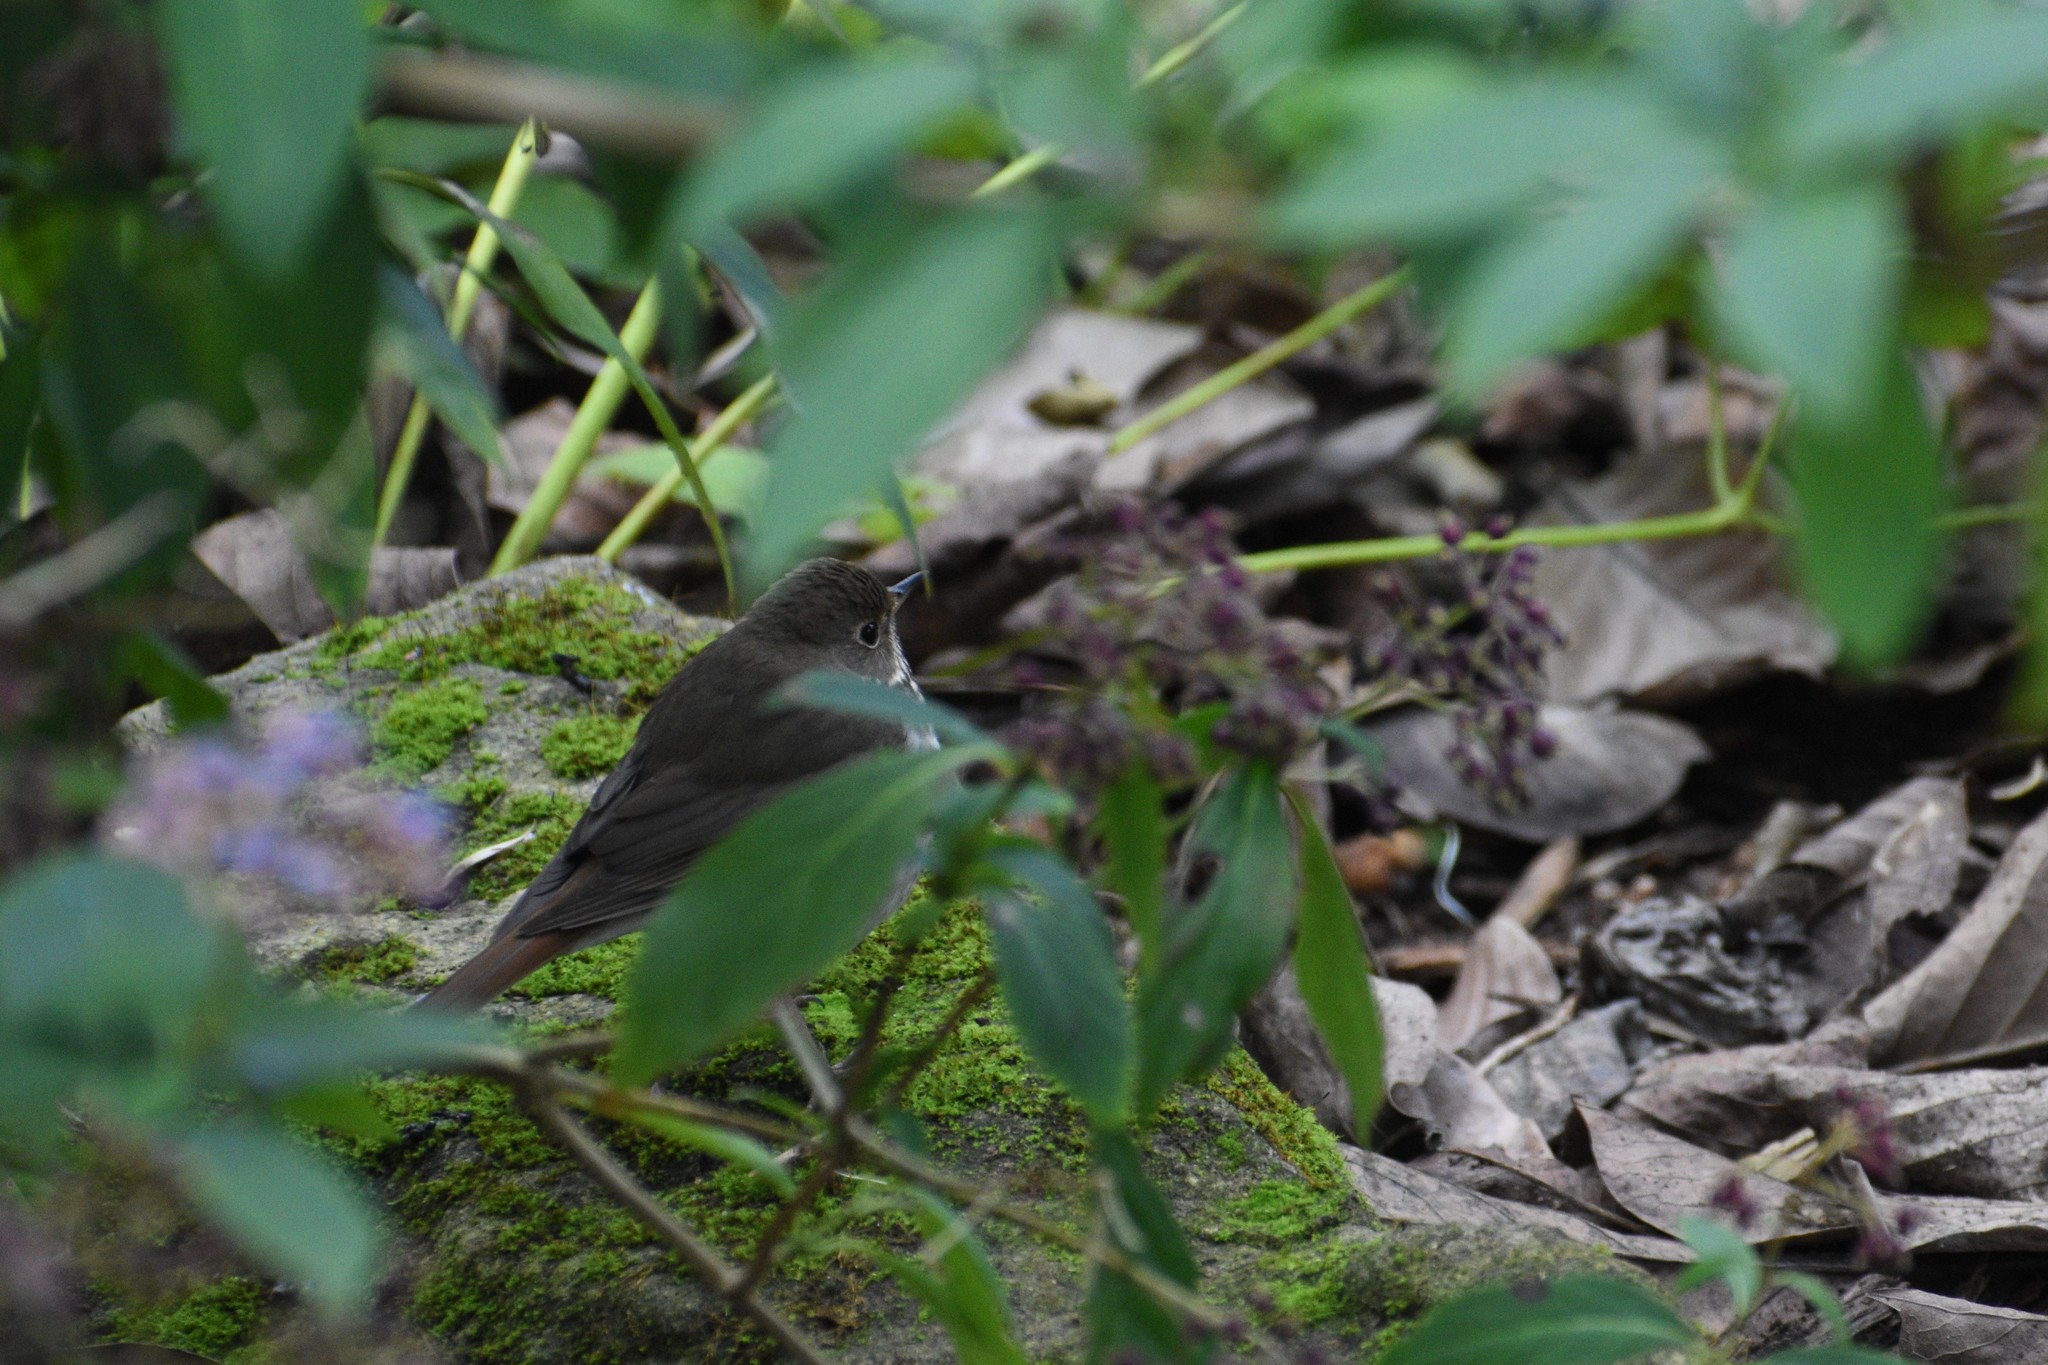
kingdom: Animalia
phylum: Chordata
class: Aves
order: Passeriformes
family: Turdidae
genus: Catharus
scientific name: Catharus guttatus
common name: Hermit thrush
